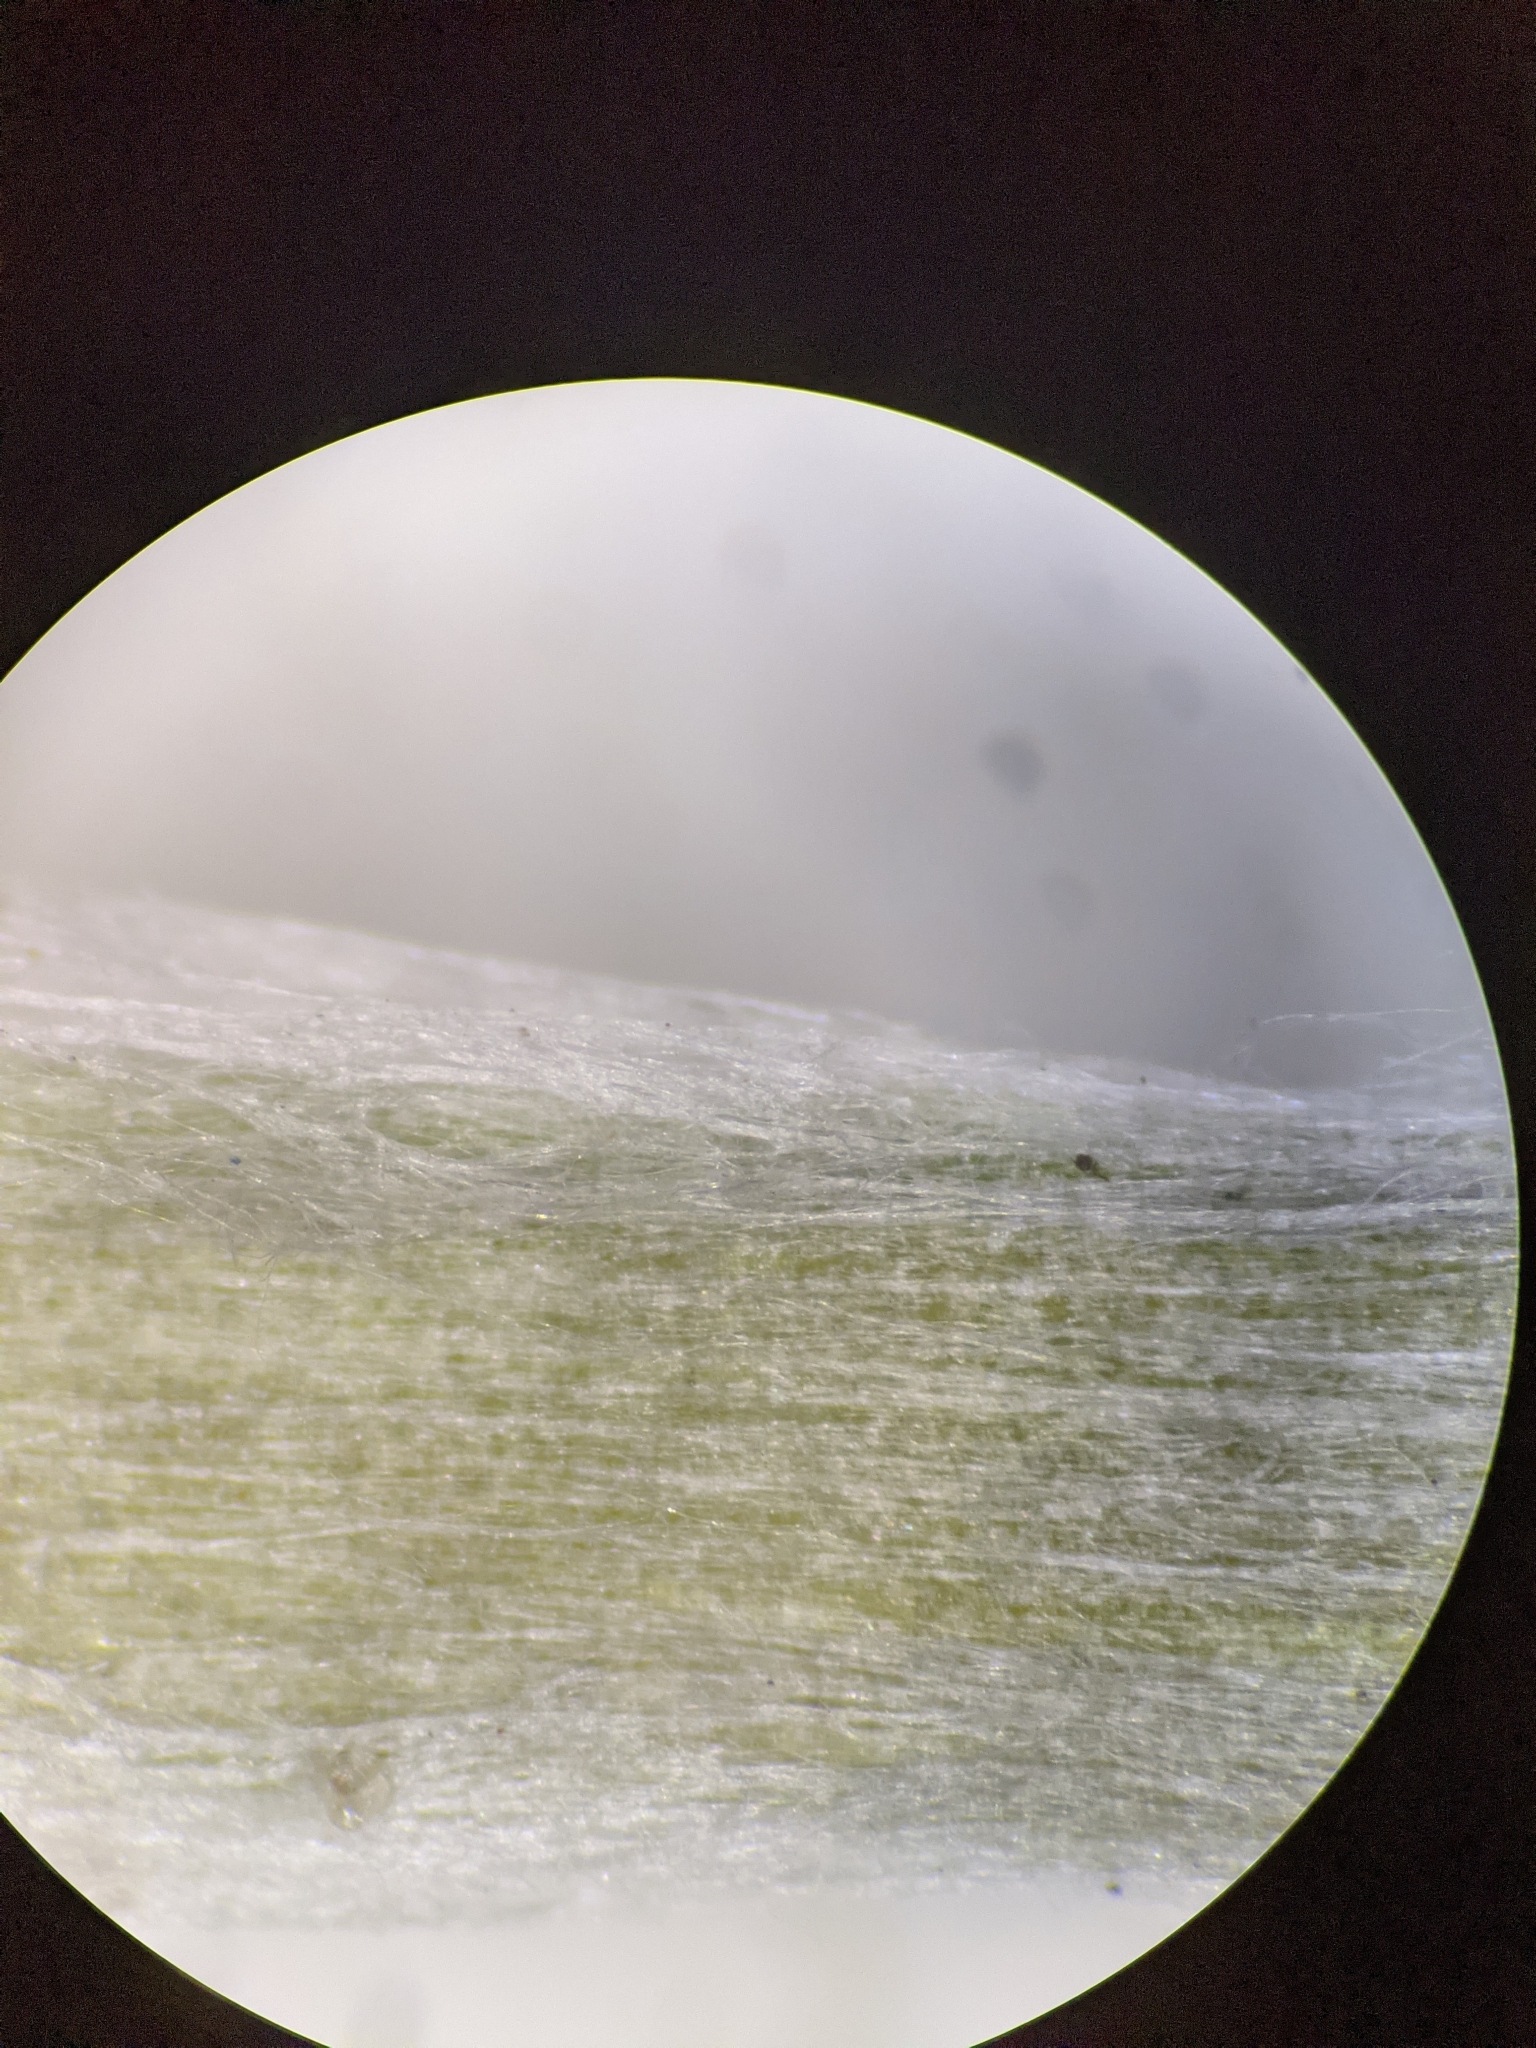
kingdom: Plantae
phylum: Tracheophyta
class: Magnoliopsida
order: Asterales
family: Asteraceae
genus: Gamochaeta
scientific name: Gamochaeta argyrinea
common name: Silvery cudweed
